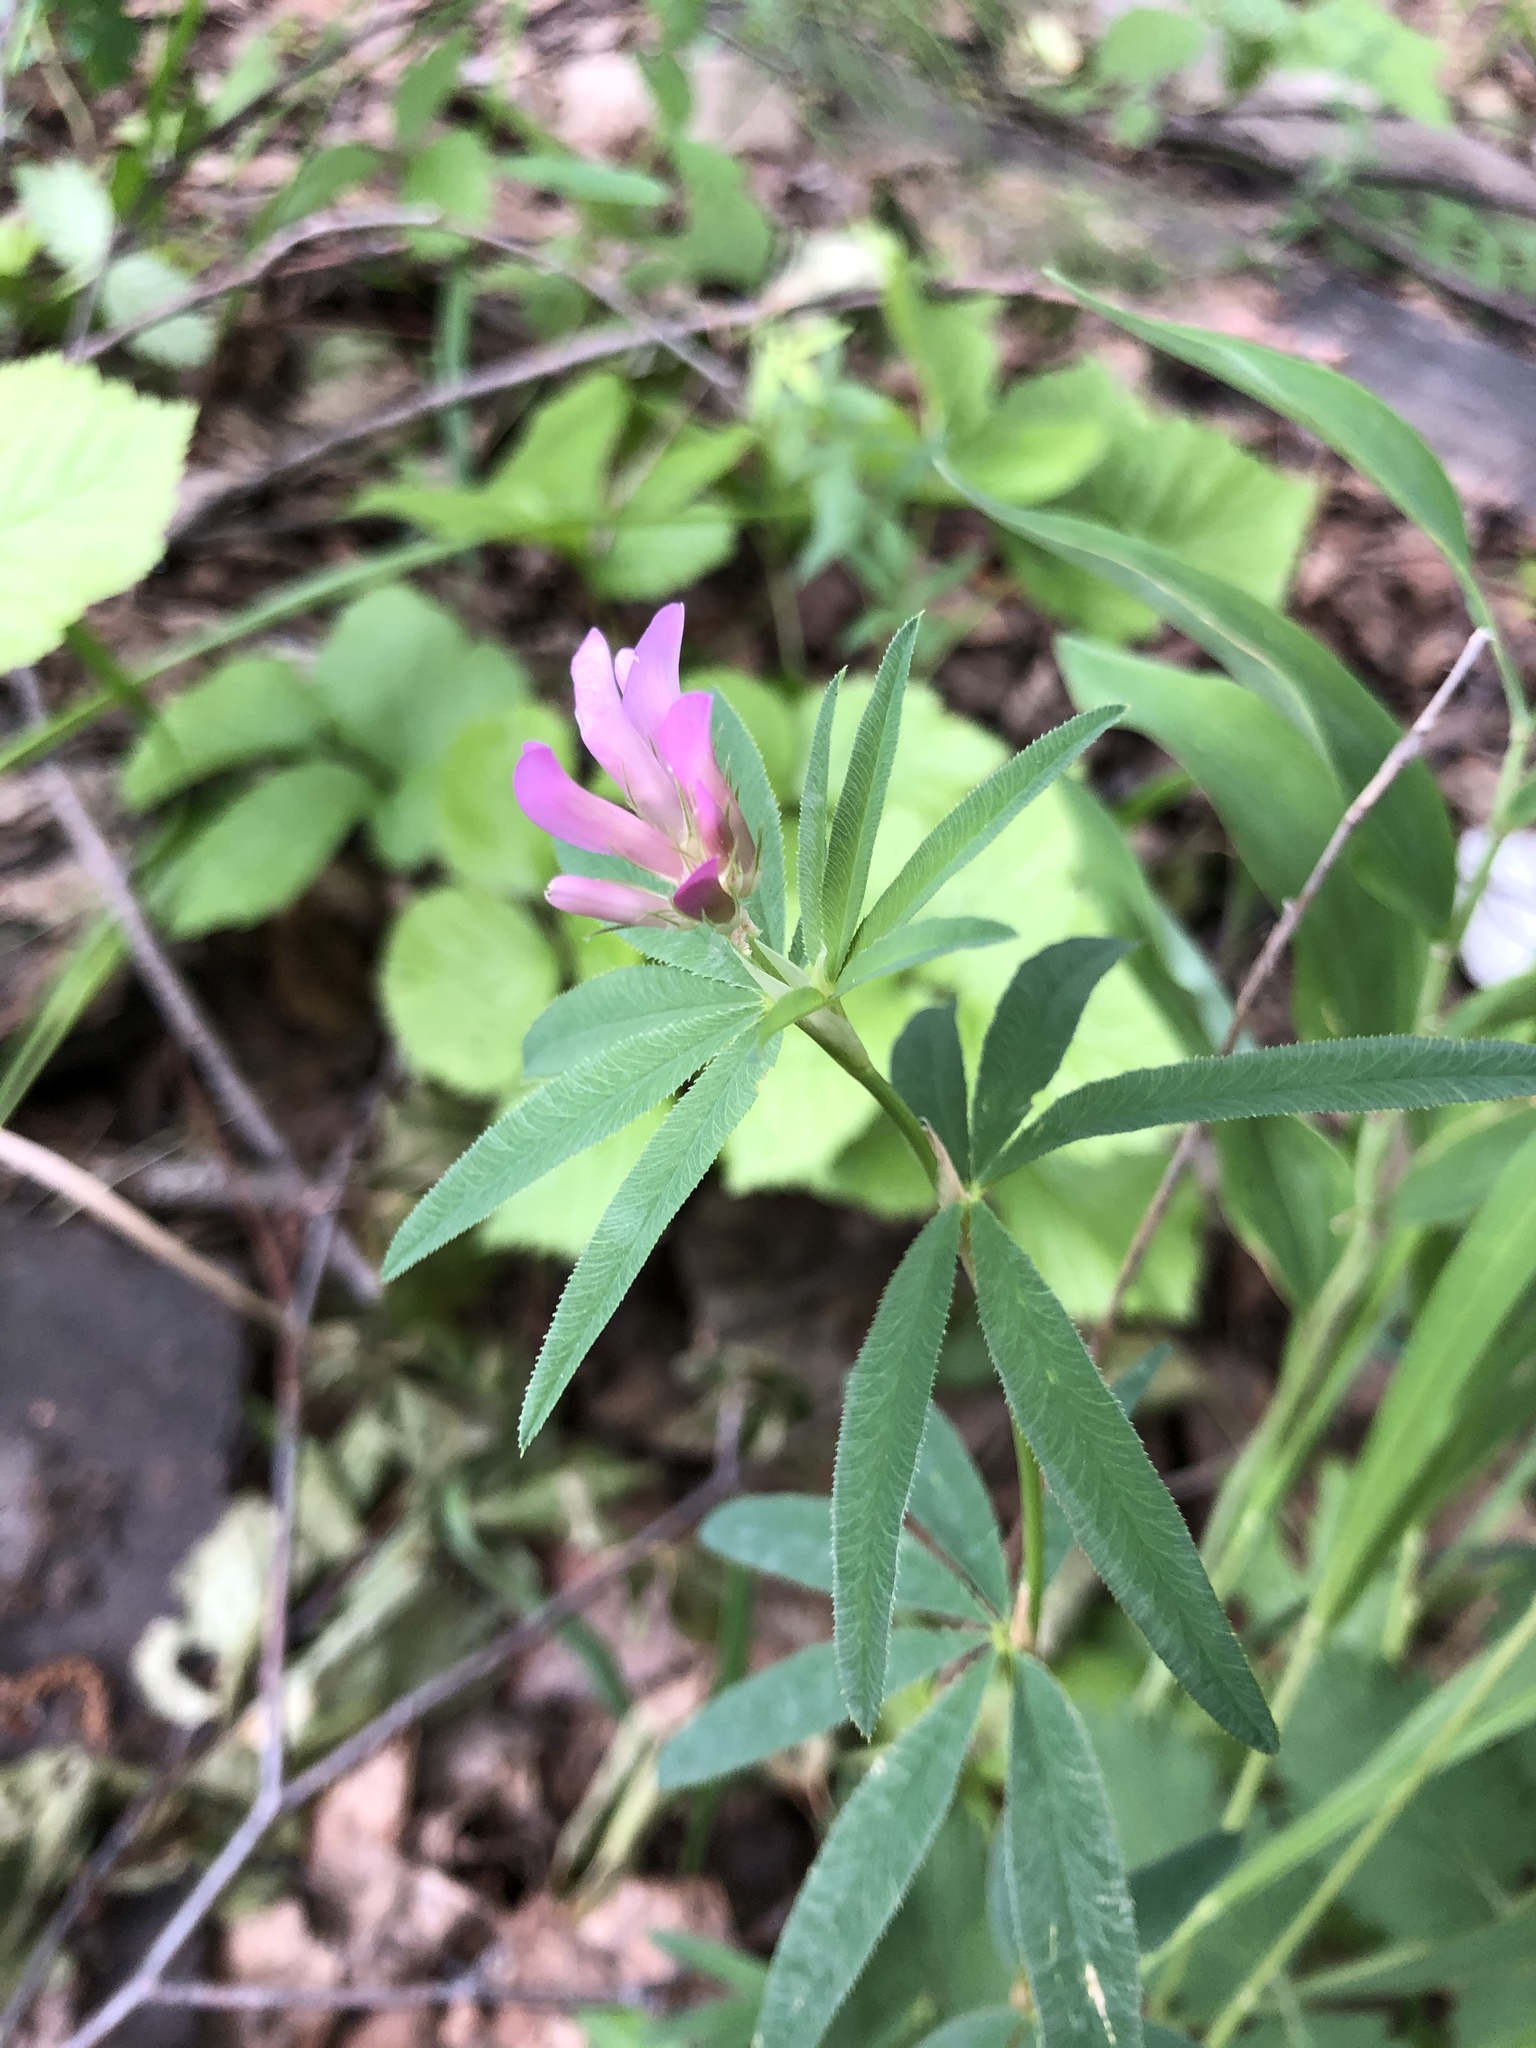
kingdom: Plantae
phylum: Tracheophyta
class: Magnoliopsida
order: Fabales
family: Fabaceae
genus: Trifolium
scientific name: Trifolium lupinaster
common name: Lupine clover
